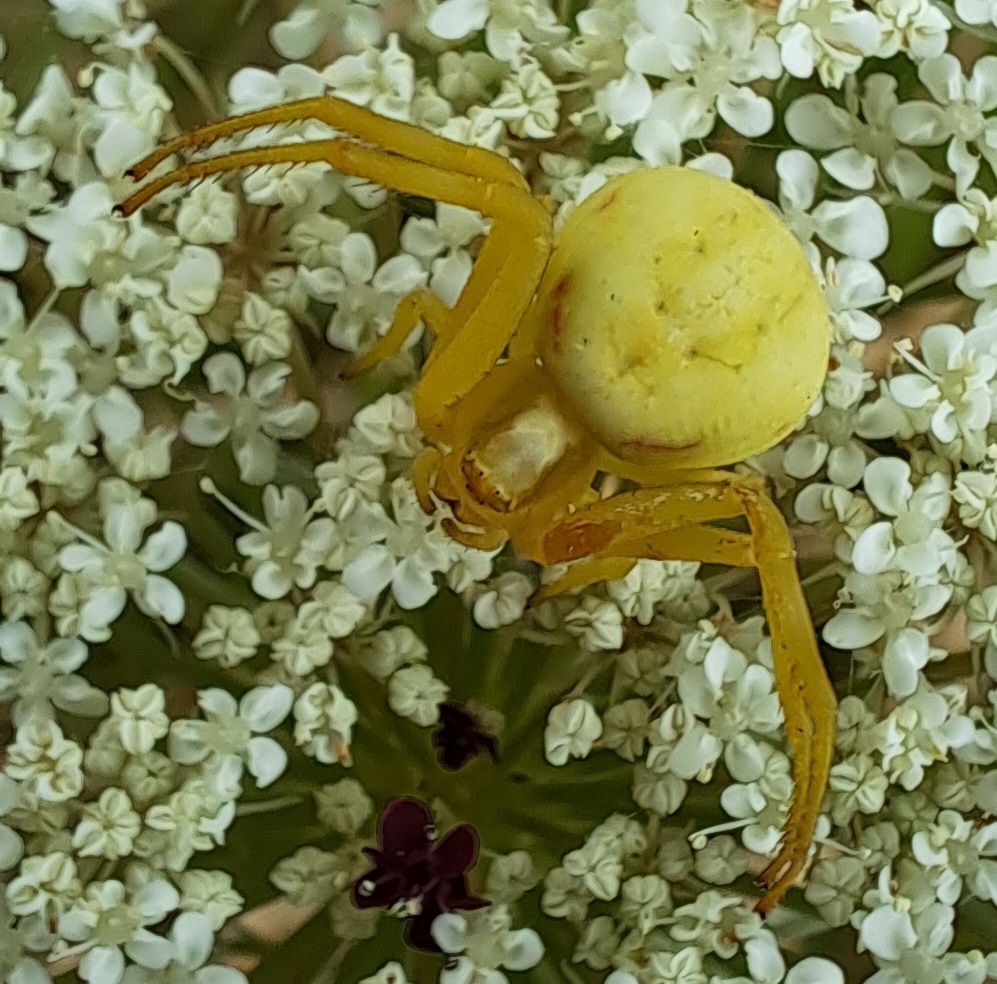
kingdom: Animalia
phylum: Arthropoda
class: Arachnida
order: Araneae
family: Thomisidae
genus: Misumena
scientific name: Misumena vatia
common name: Goldenrod crab spider
